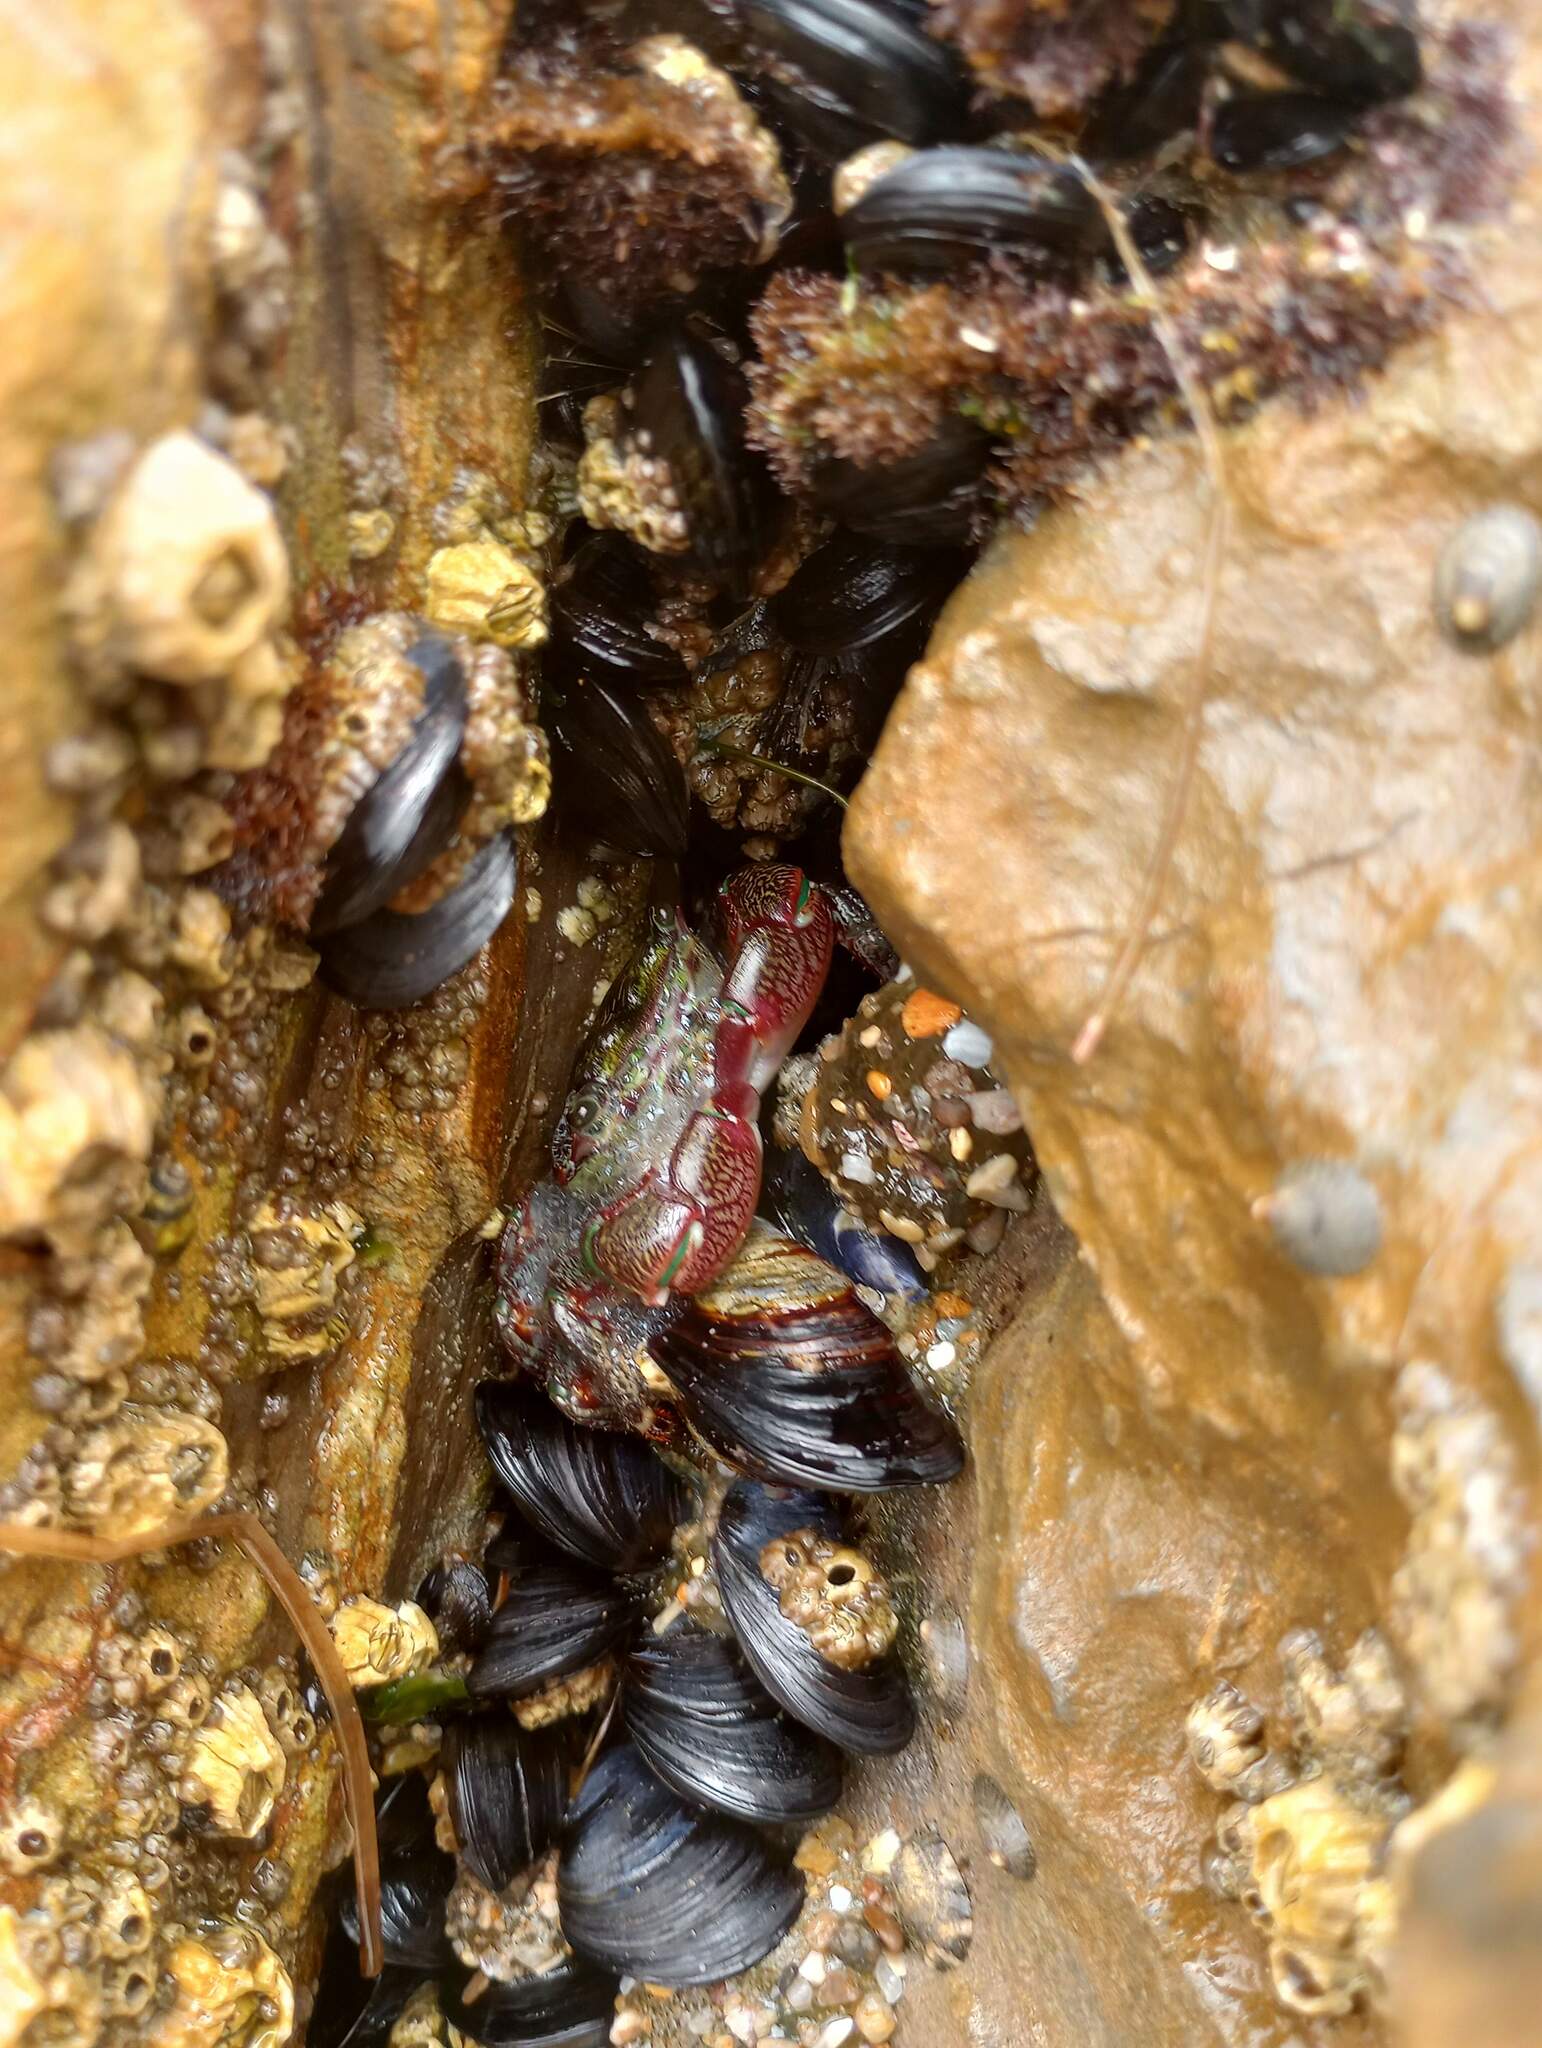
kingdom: Animalia
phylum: Arthropoda
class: Malacostraca
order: Decapoda
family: Grapsidae
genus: Pachygrapsus
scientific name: Pachygrapsus crassipes
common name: Striped shore crab
